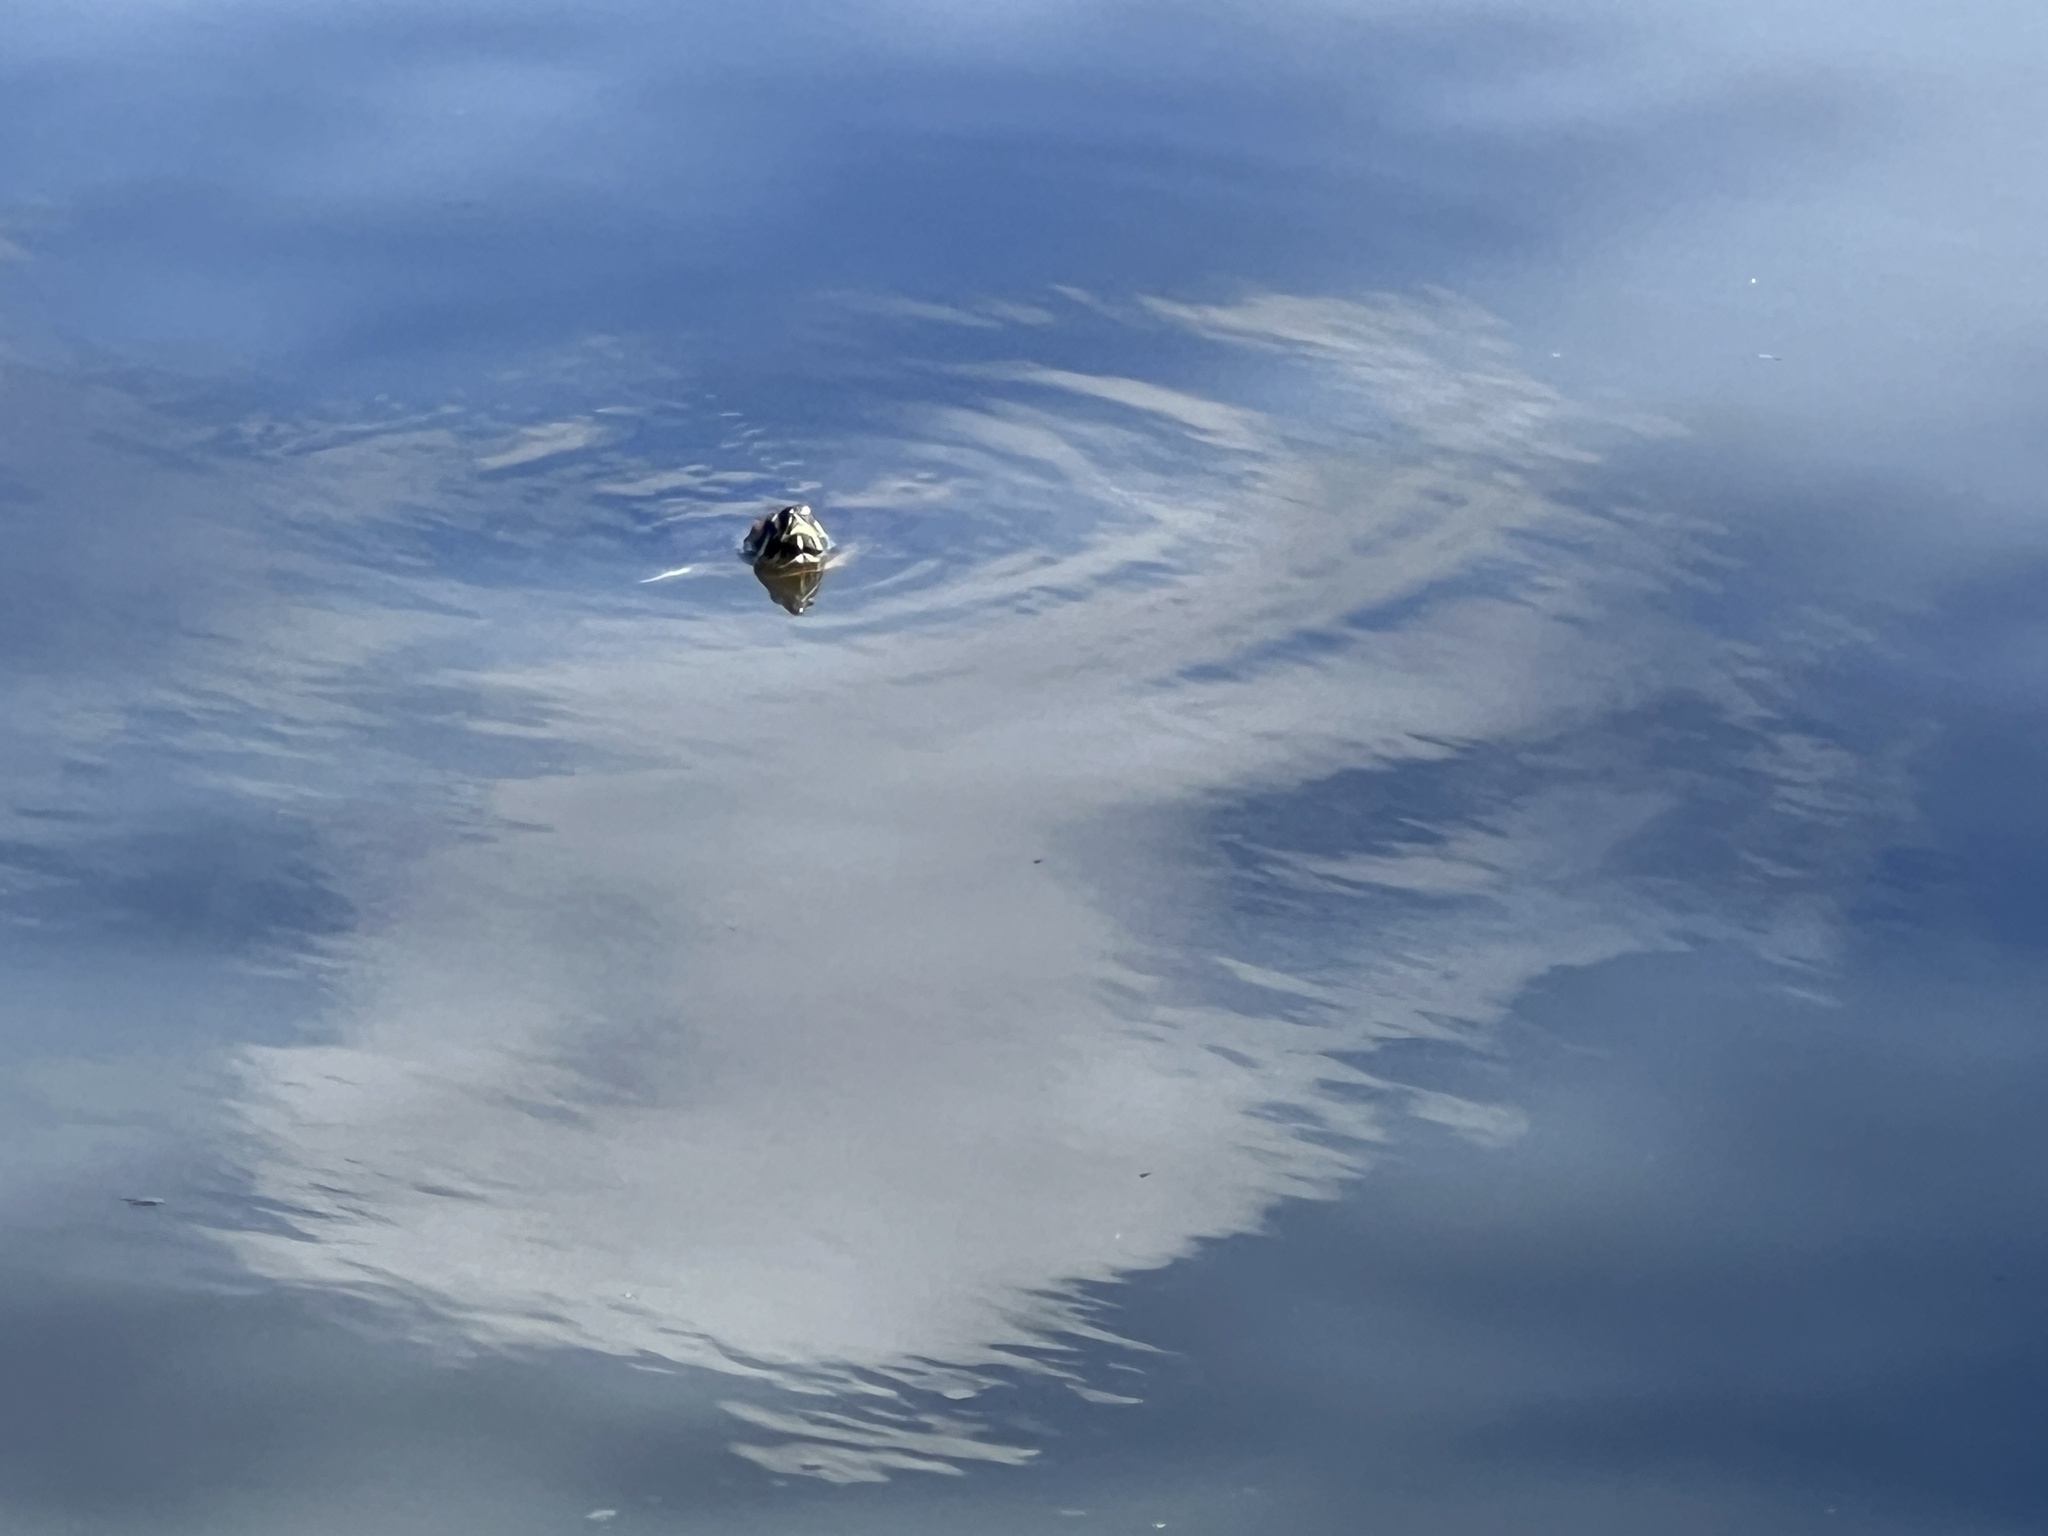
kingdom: Animalia
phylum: Chordata
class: Testudines
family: Emydidae
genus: Trachemys
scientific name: Trachemys scripta
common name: Slider
